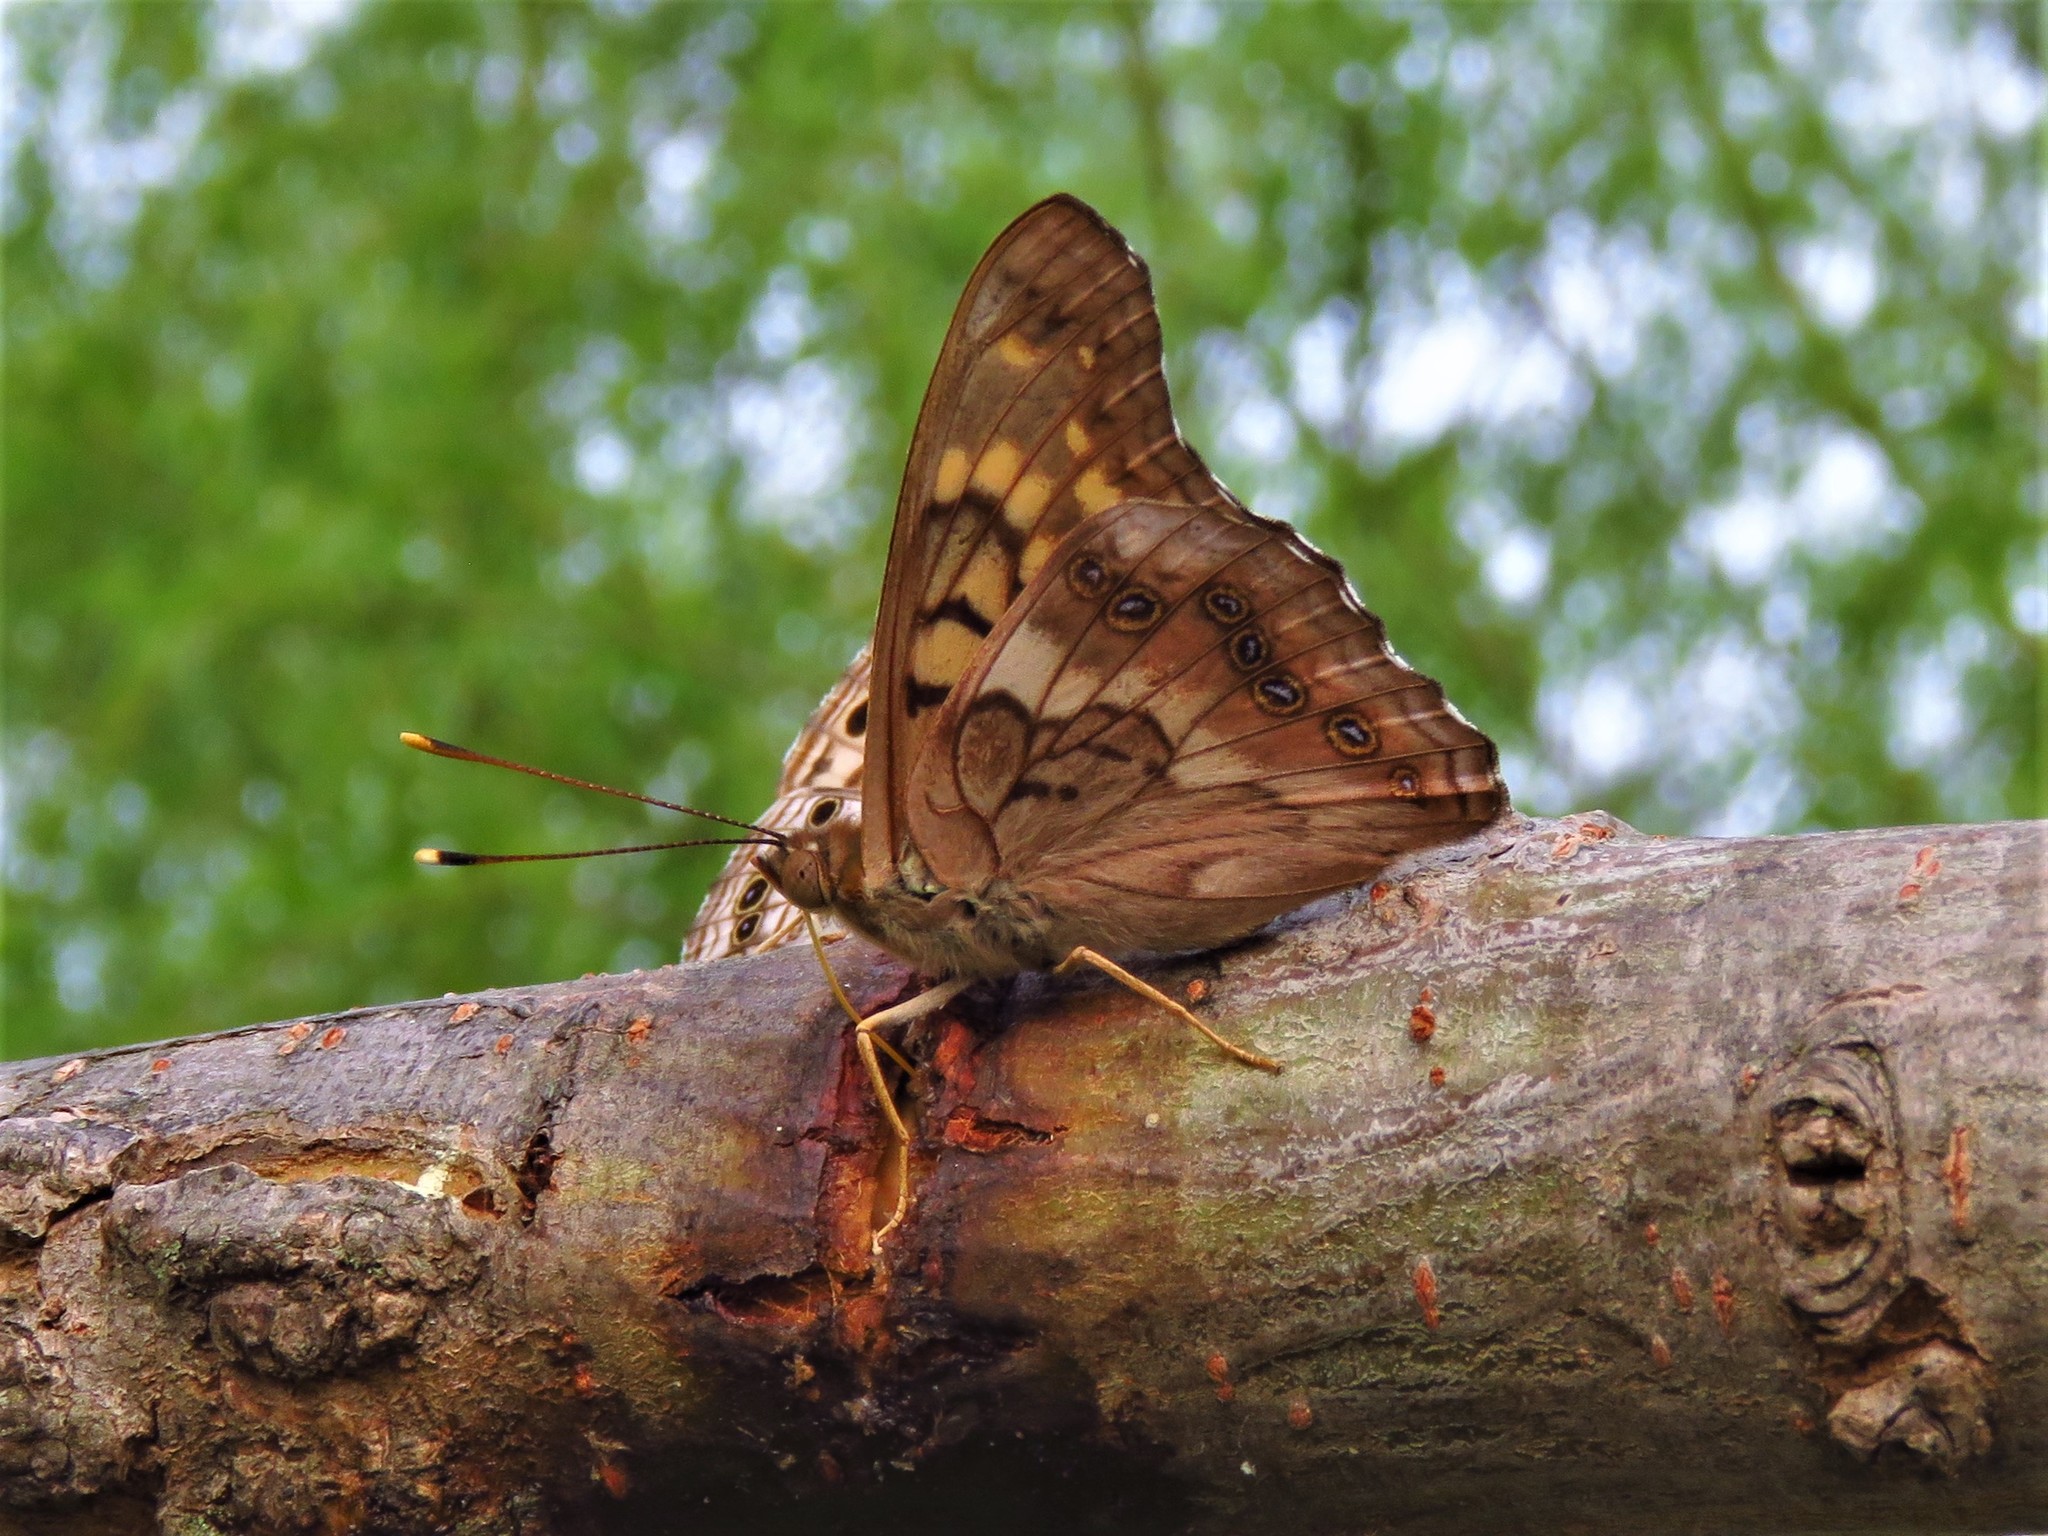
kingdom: Animalia
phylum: Arthropoda
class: Insecta
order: Lepidoptera
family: Nymphalidae
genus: Asterocampa
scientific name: Asterocampa clyton
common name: Tawny emperor
